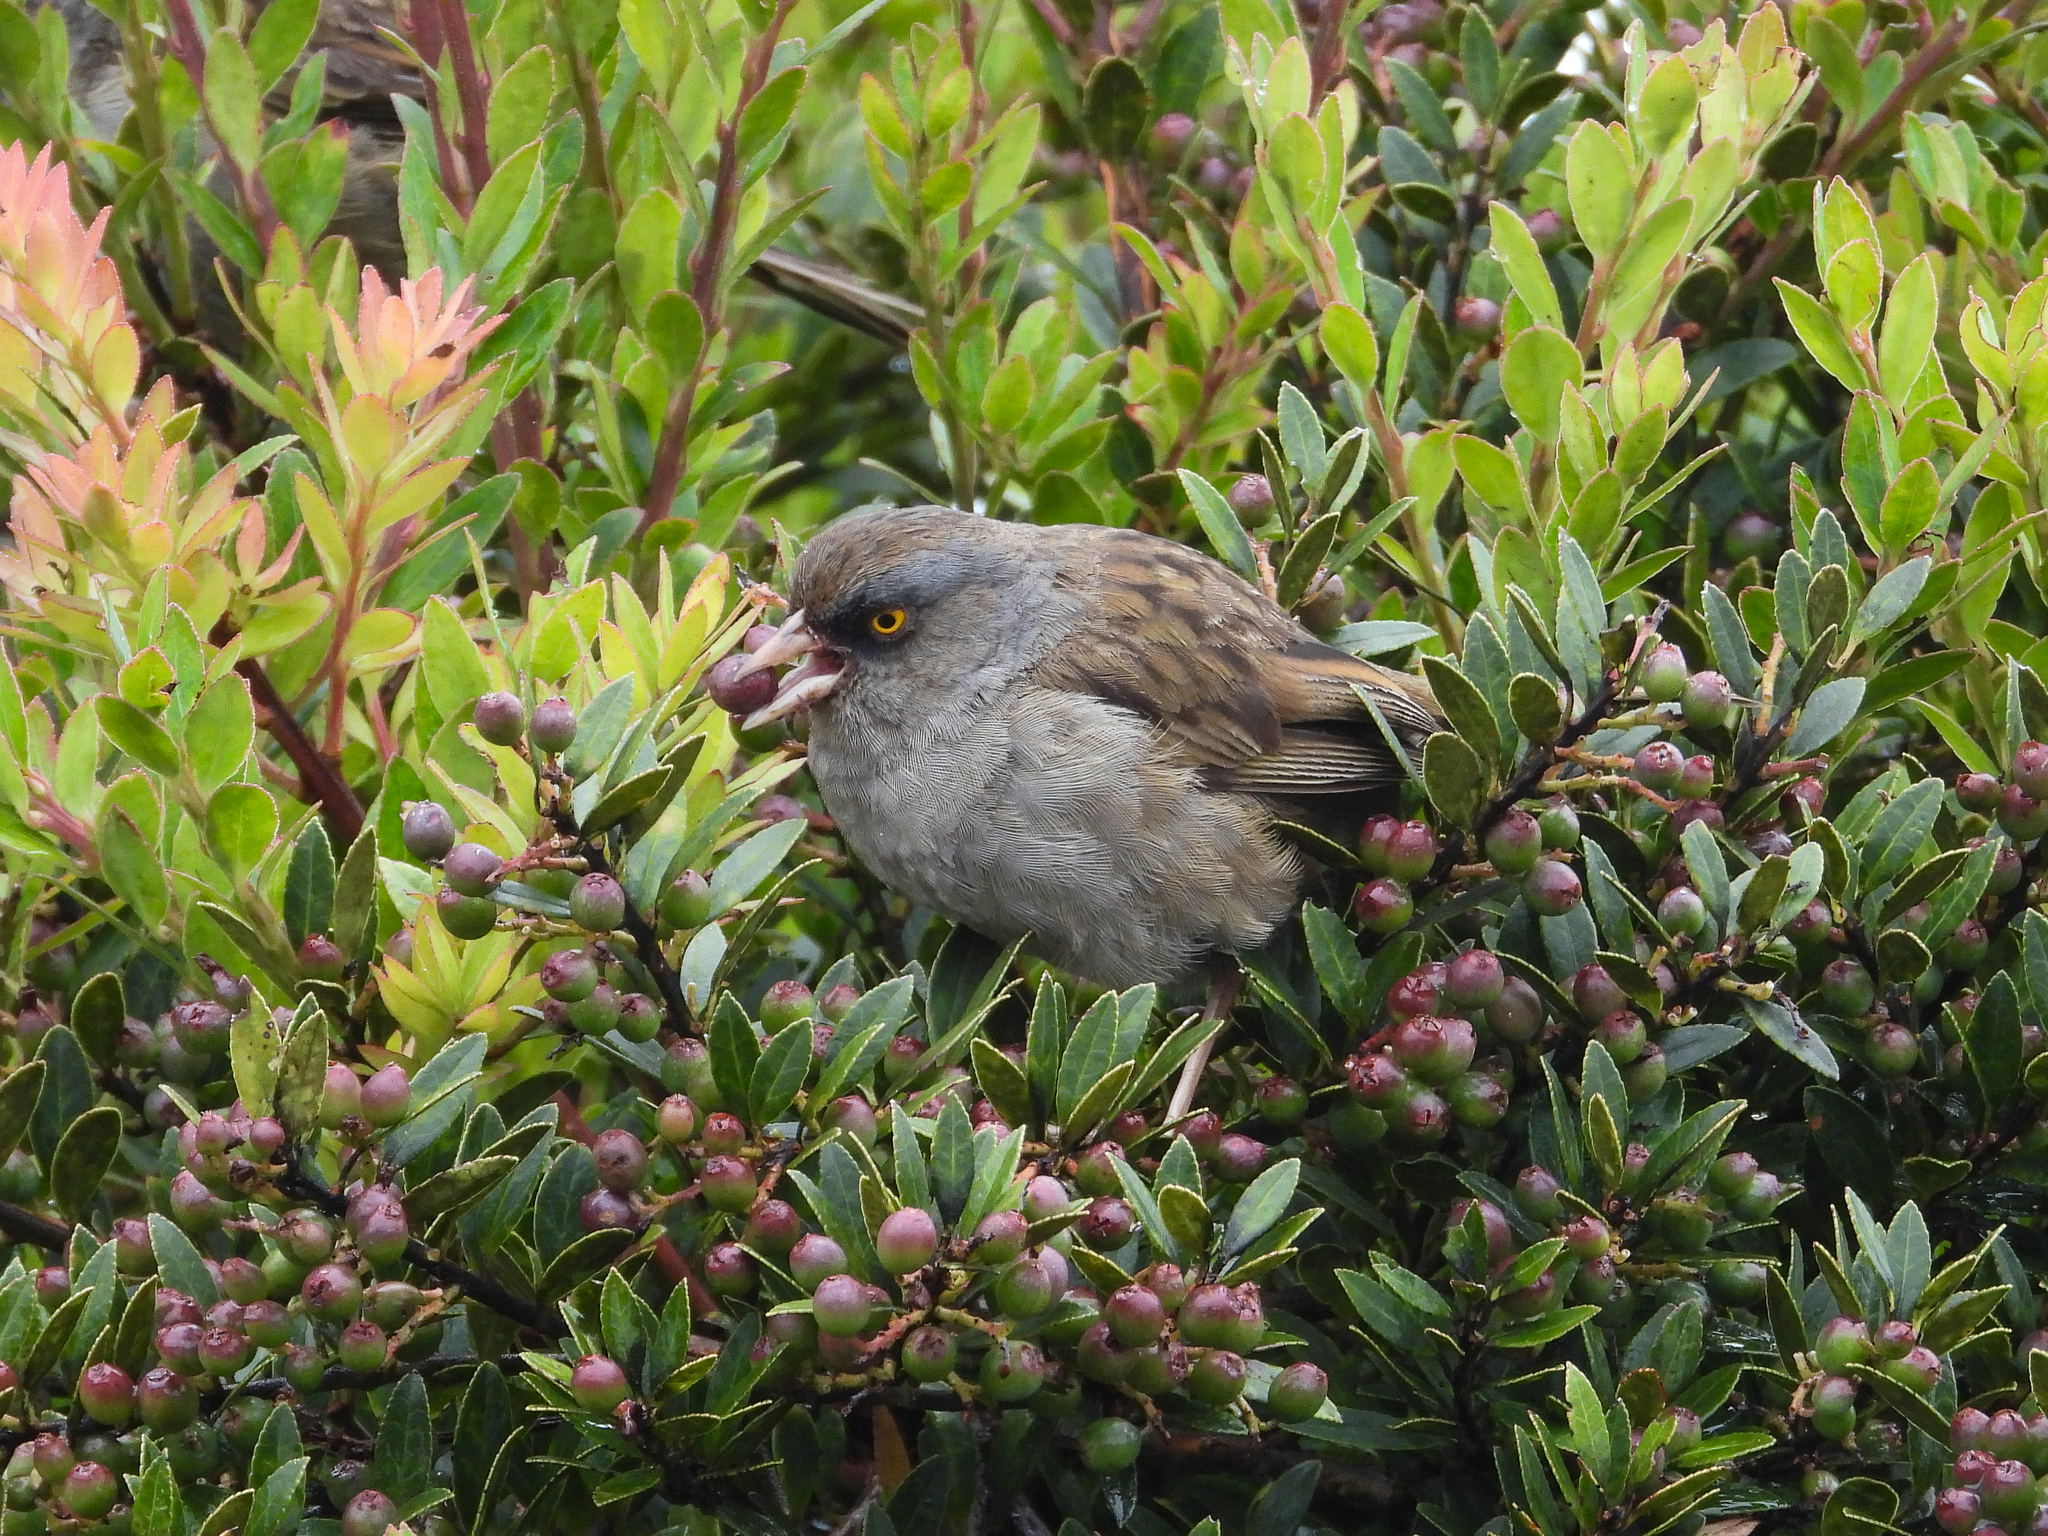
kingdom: Animalia
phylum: Chordata
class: Aves
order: Passeriformes
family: Passerellidae
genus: Junco
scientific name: Junco vulcani
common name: Volcano junco
